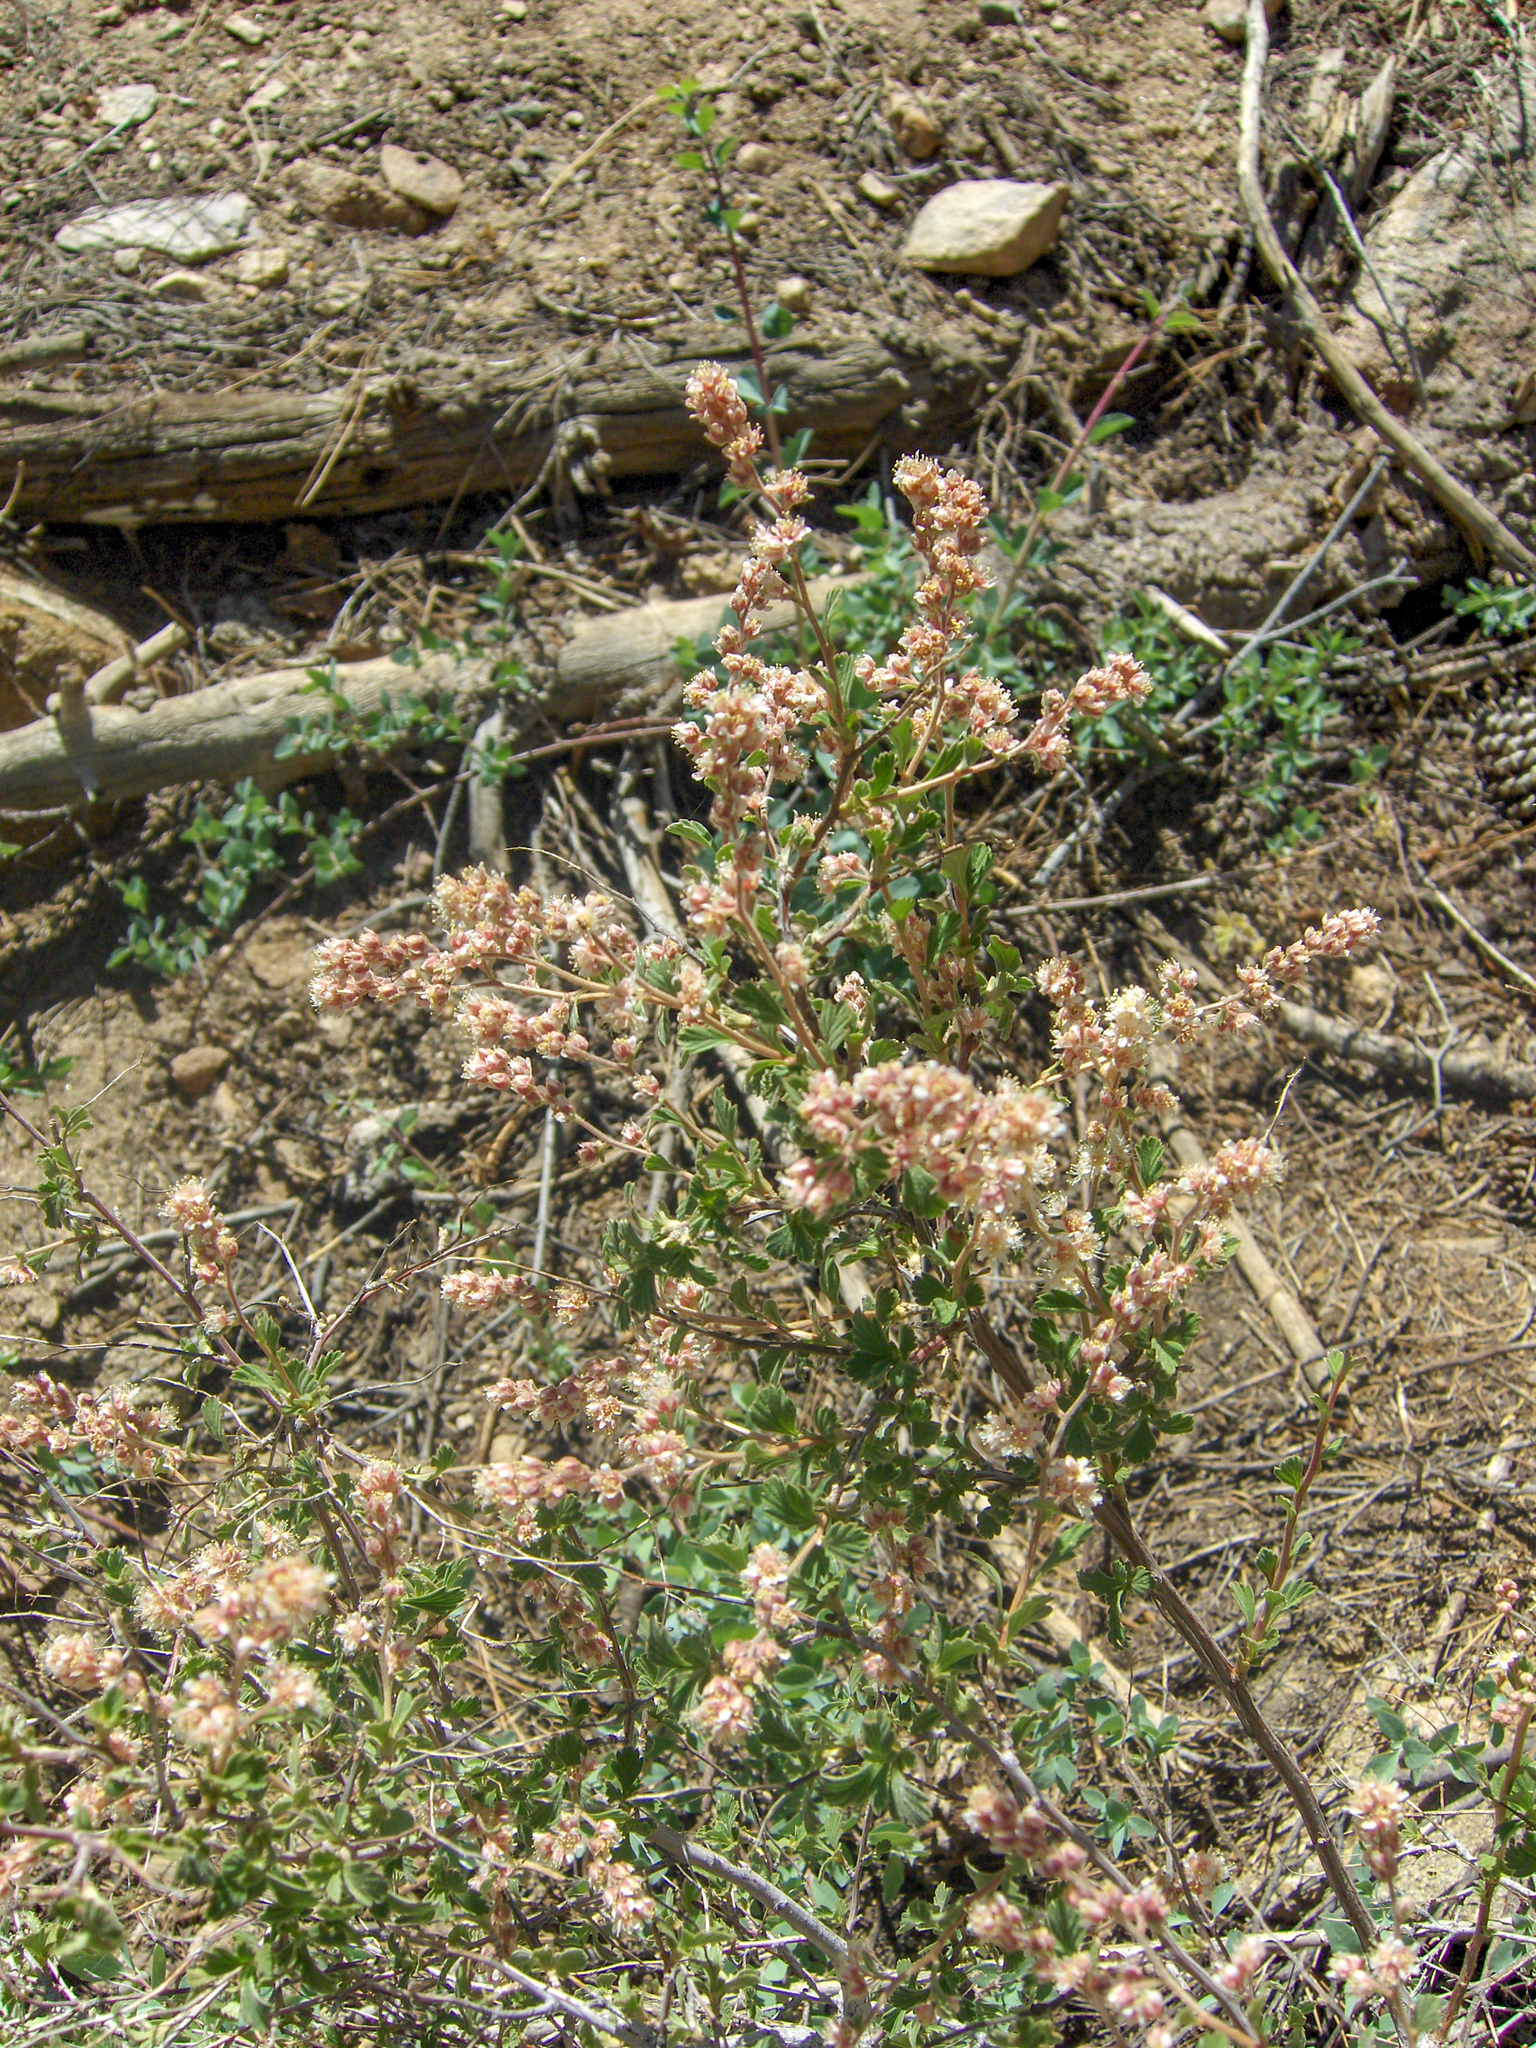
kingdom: Plantae
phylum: Tracheophyta
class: Magnoliopsida
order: Rosales
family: Rosaceae
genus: Holodiscus
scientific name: Holodiscus discolor
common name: Oceanspray
